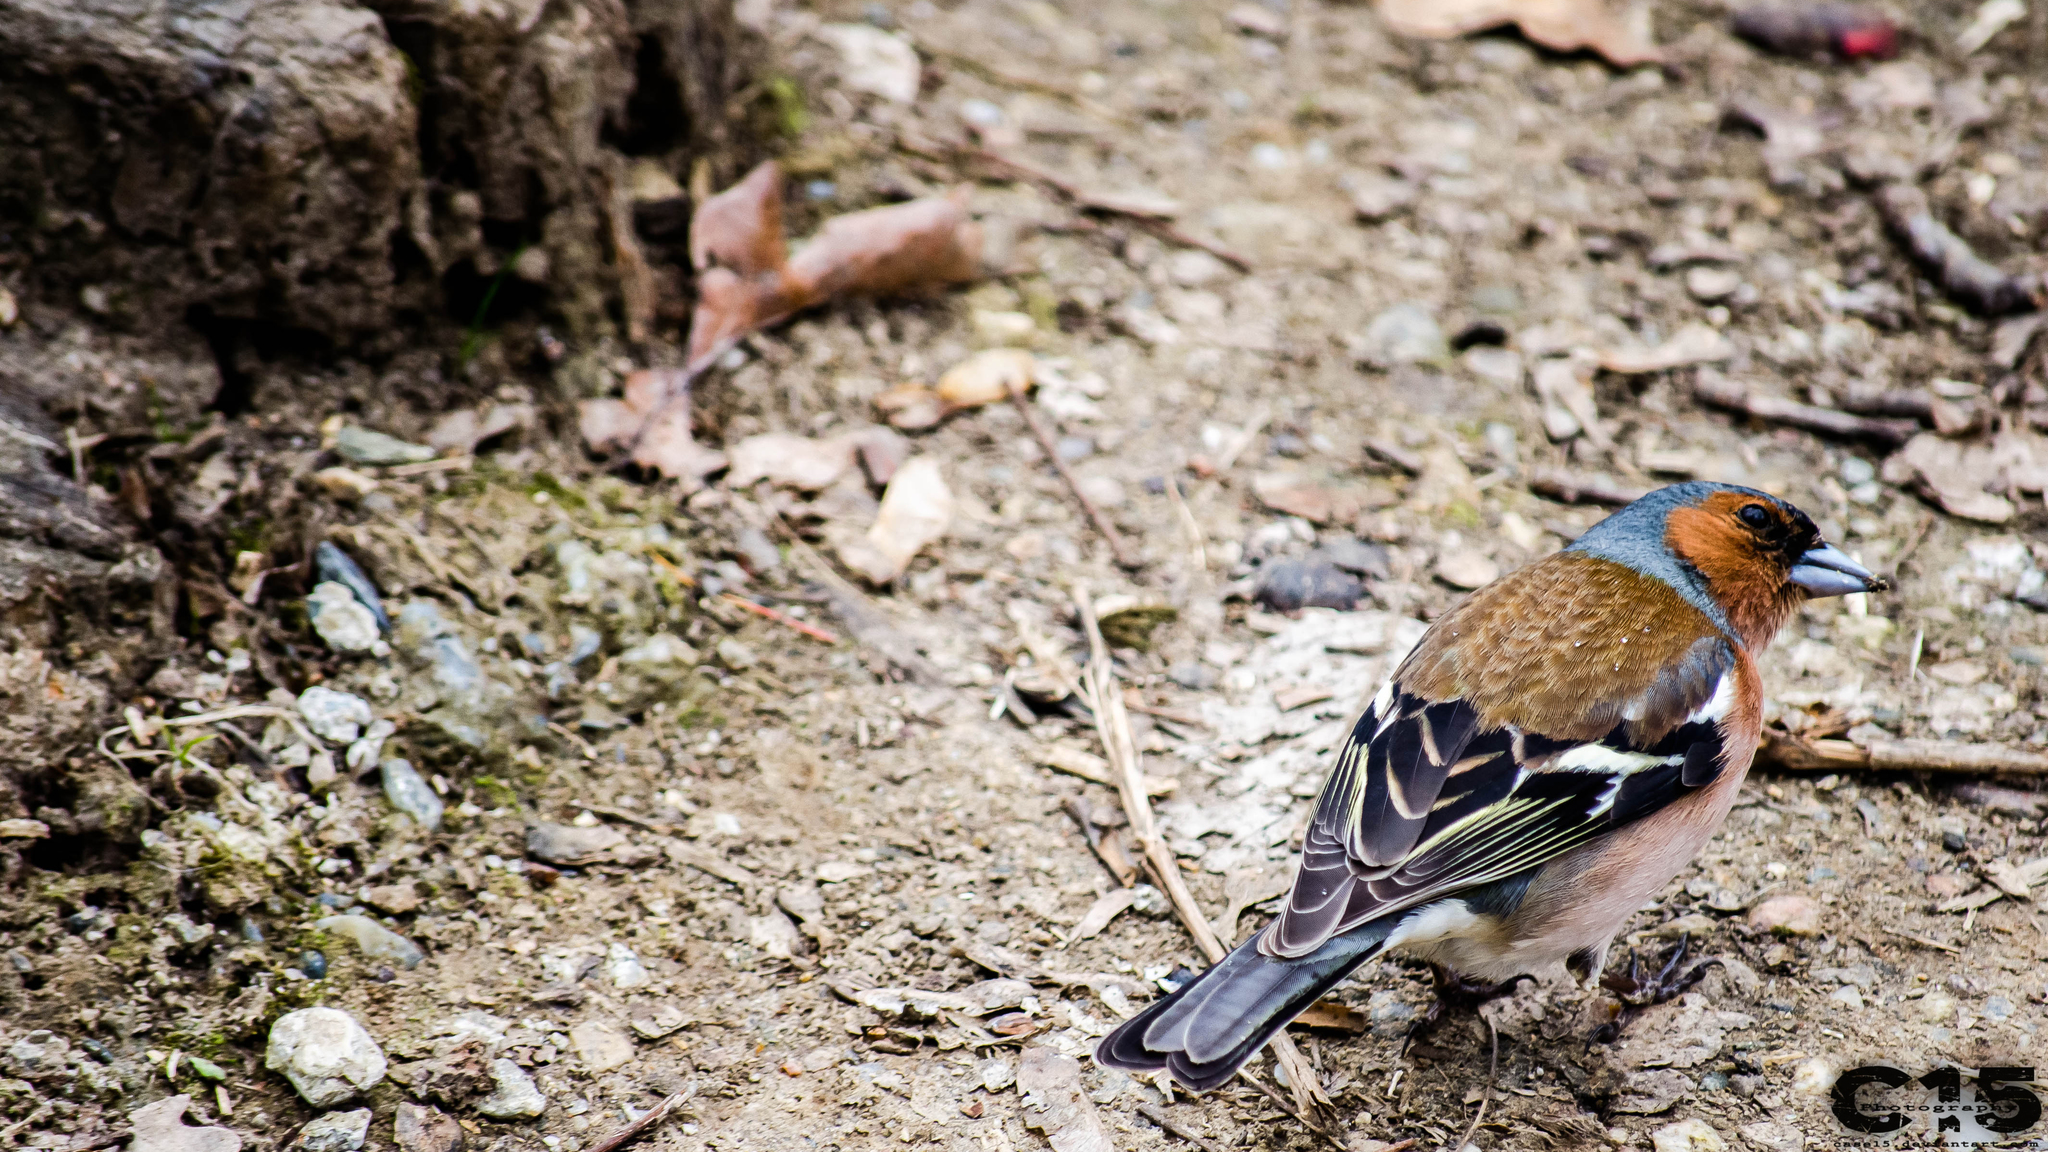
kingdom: Animalia
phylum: Chordata
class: Aves
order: Passeriformes
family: Fringillidae
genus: Fringilla
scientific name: Fringilla coelebs
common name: Common chaffinch
